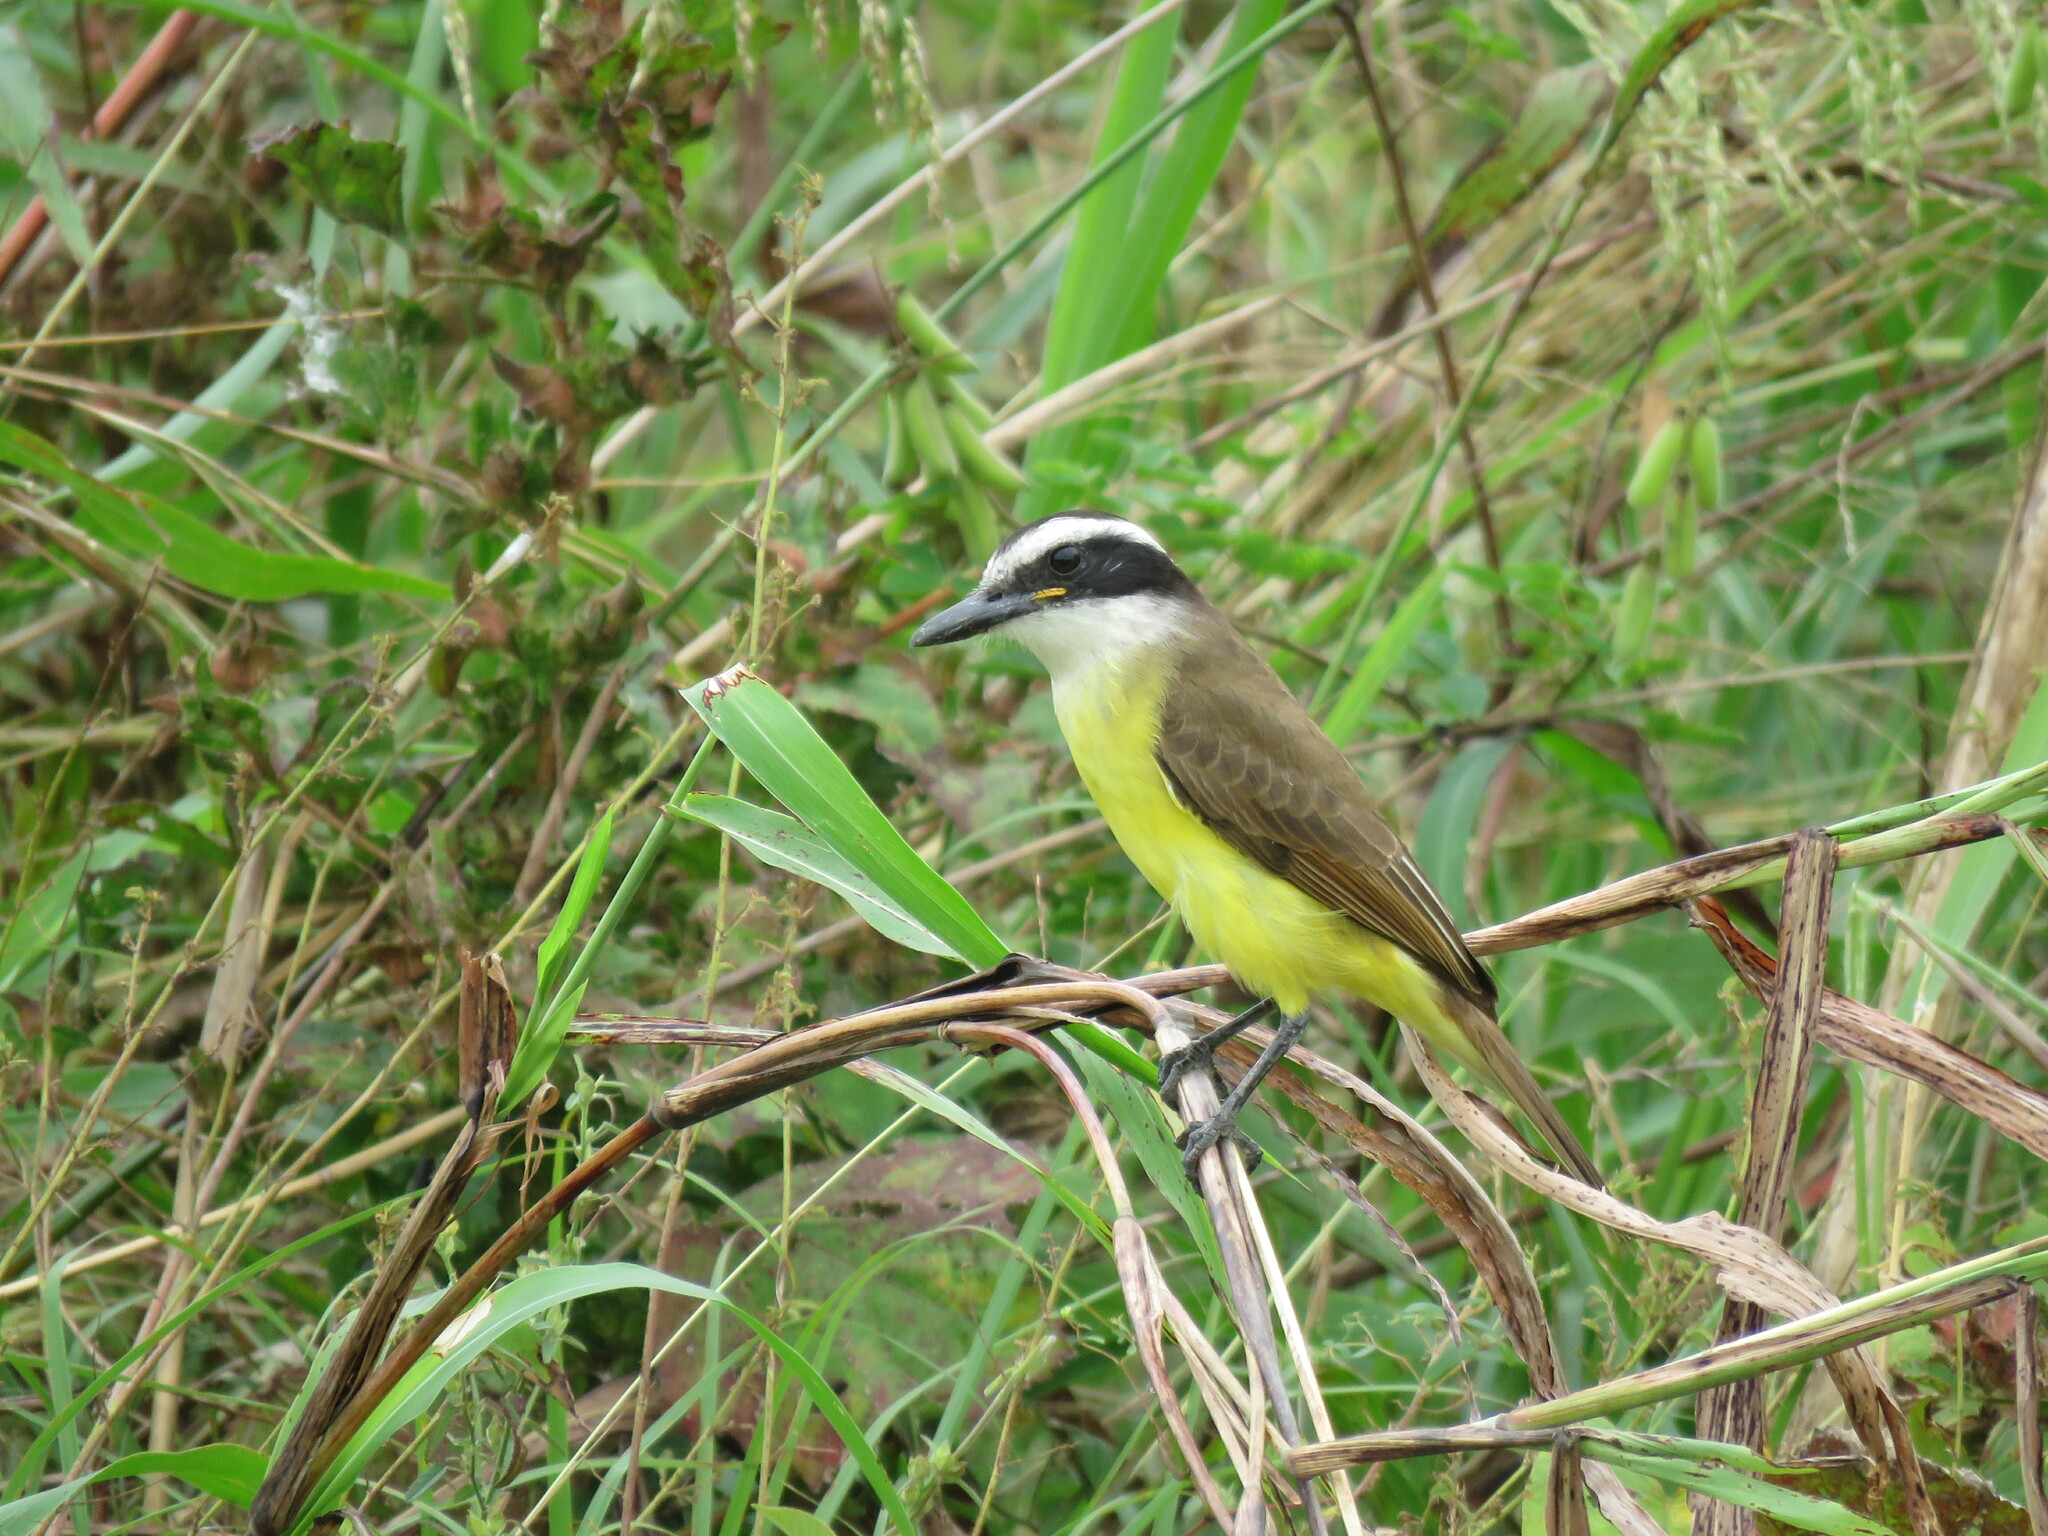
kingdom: Animalia
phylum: Chordata
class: Aves
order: Passeriformes
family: Tyrannidae
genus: Pitangus
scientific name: Pitangus sulphuratus
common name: Great kiskadee
